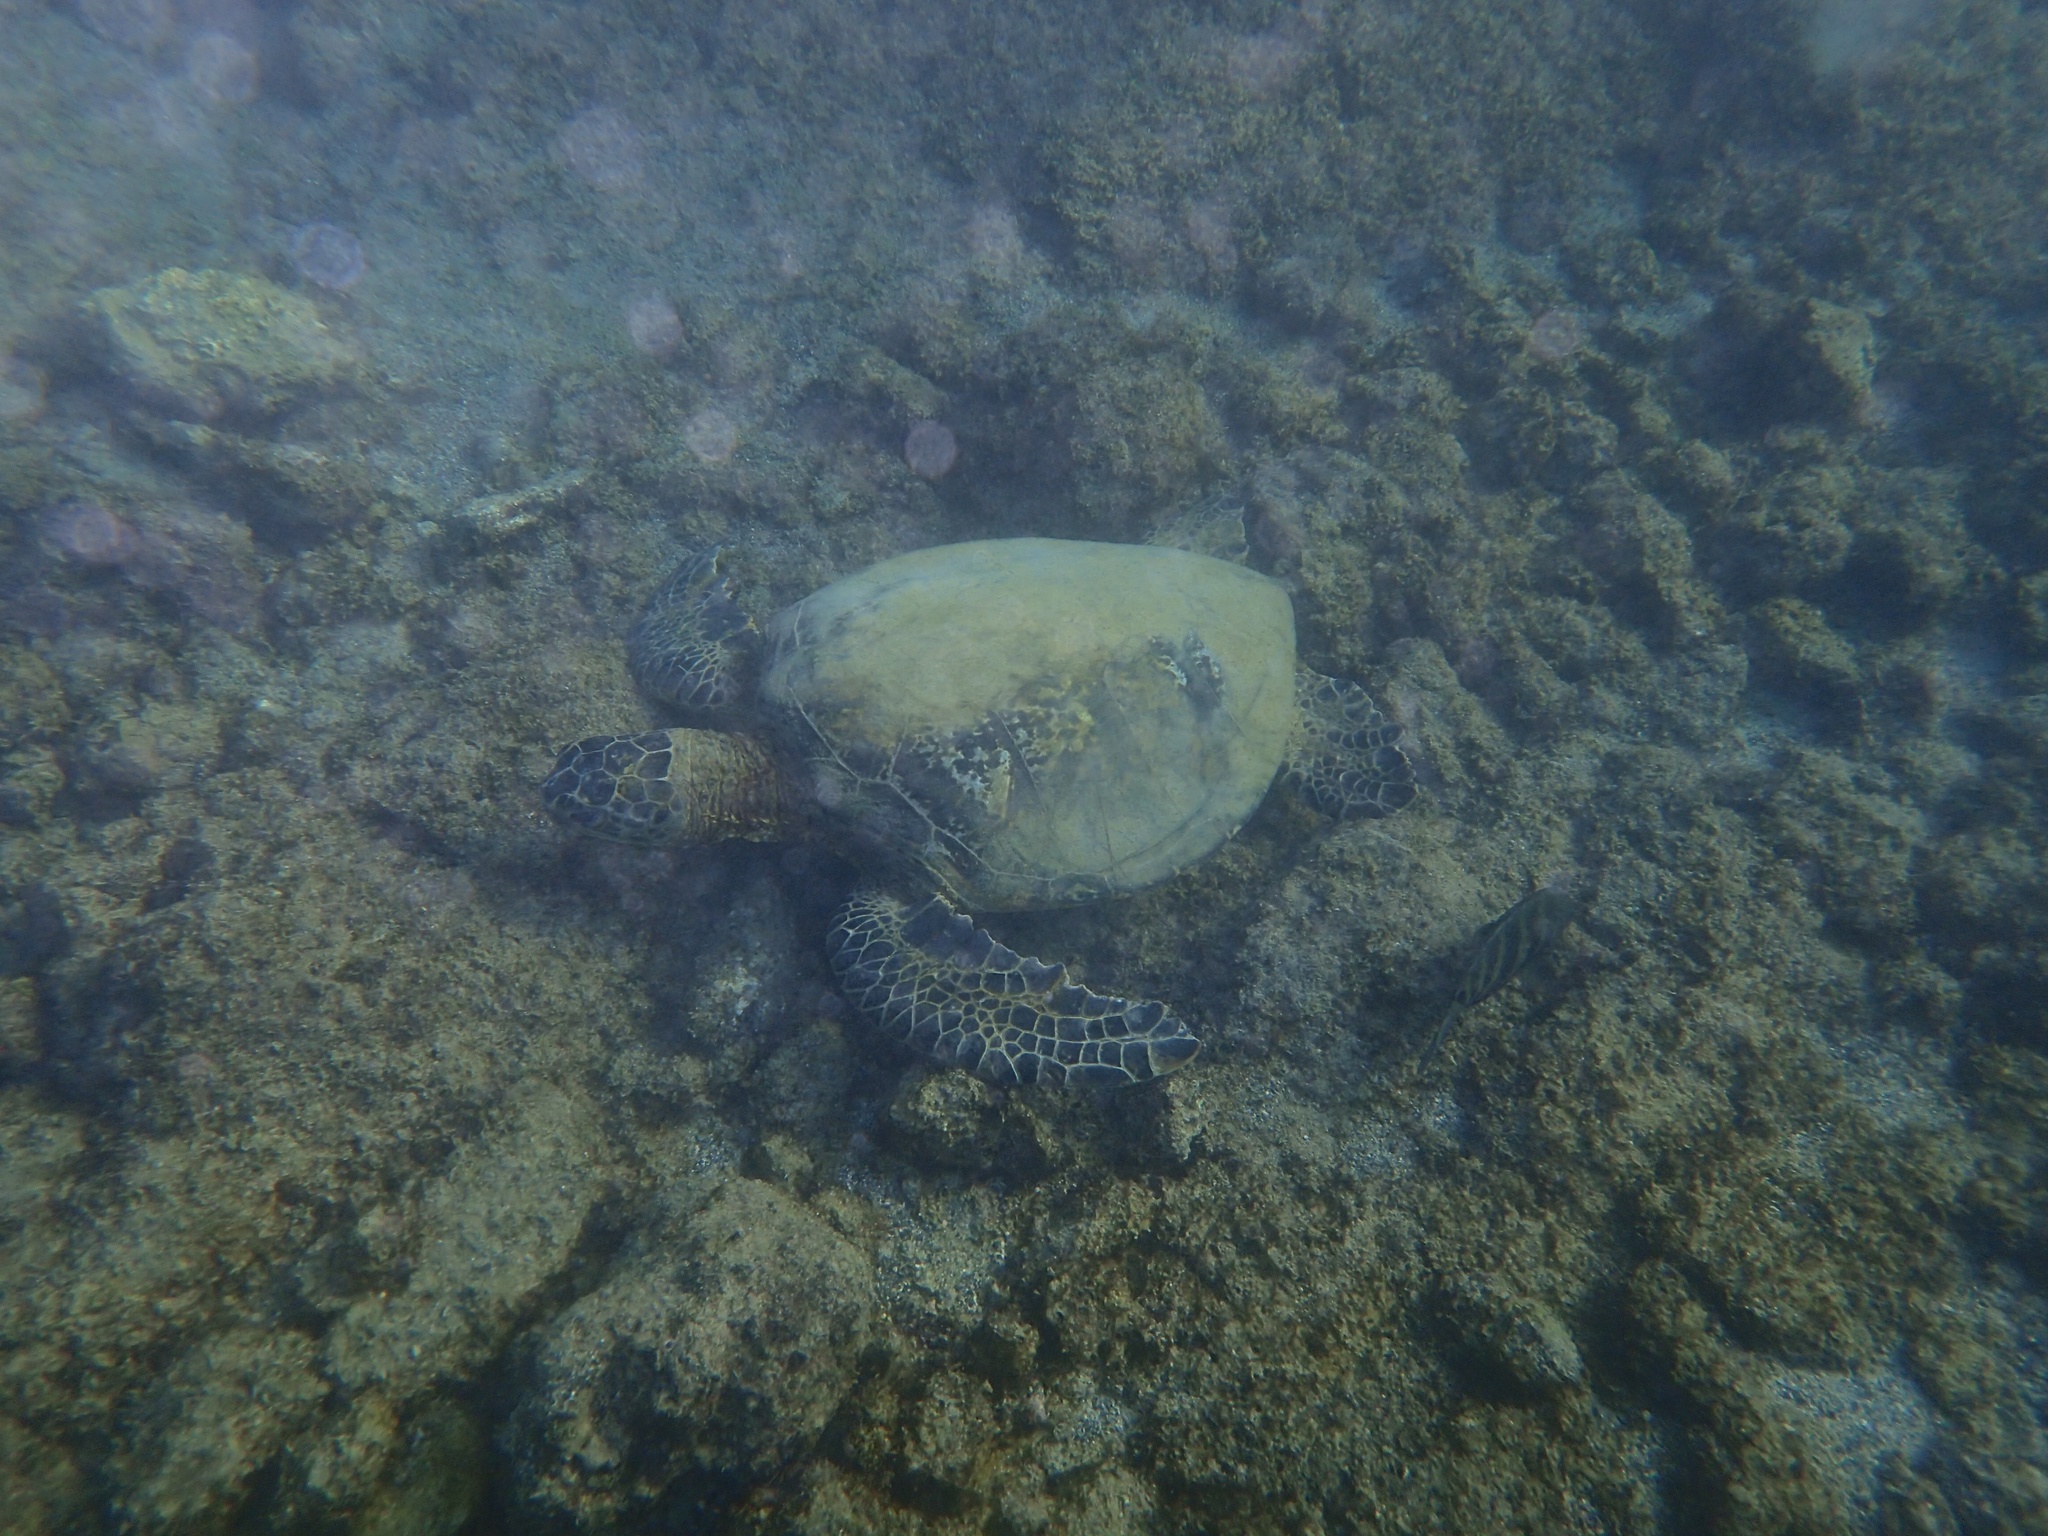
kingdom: Animalia
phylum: Chordata
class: Testudines
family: Cheloniidae
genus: Chelonia
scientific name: Chelonia mydas
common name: Green turtle
